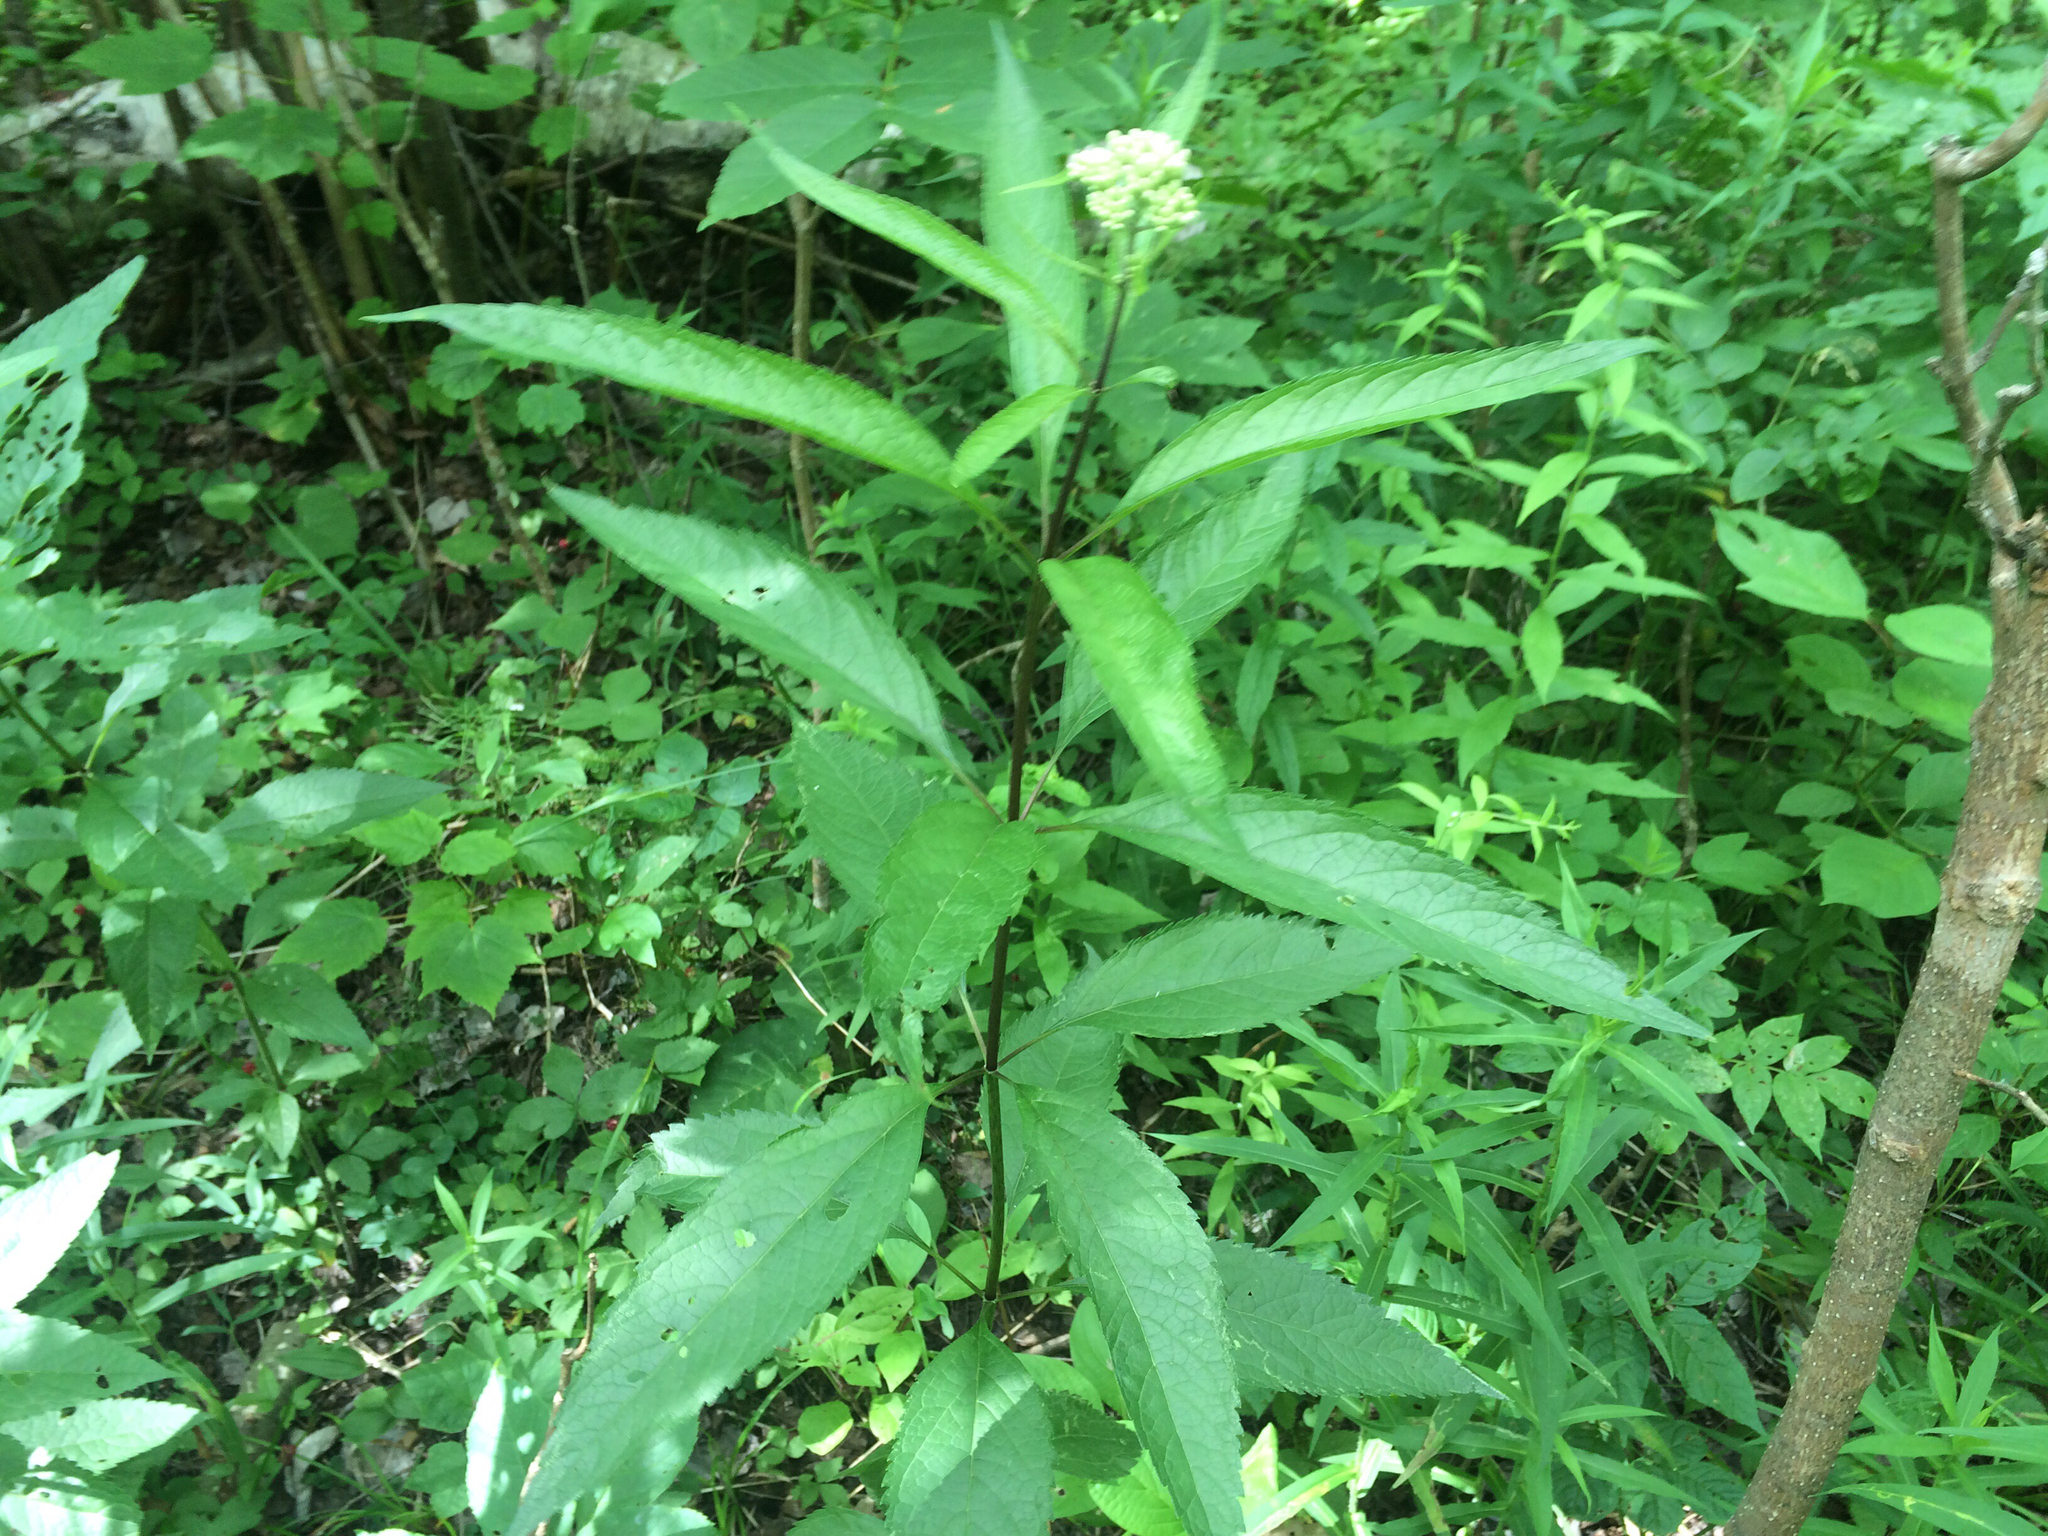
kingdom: Plantae
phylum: Tracheophyta
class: Magnoliopsida
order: Asterales
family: Asteraceae
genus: Eutrochium
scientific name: Eutrochium maculatum
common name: Spotted joe pye weed
